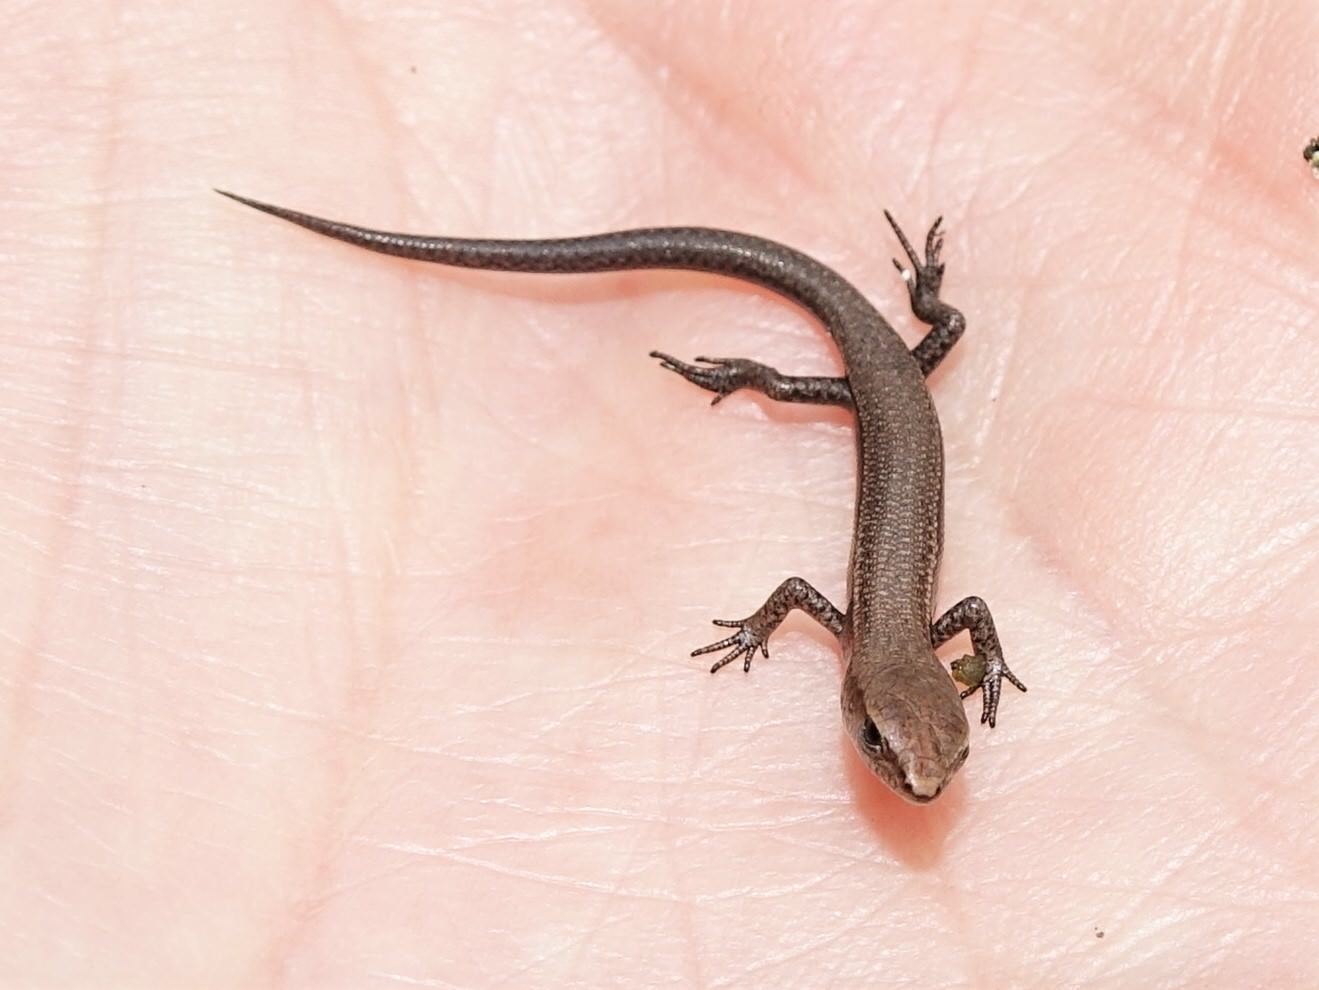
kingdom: Animalia
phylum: Chordata
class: Squamata
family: Scincidae
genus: Lampropholis
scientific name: Lampropholis delicata
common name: Plague skink
